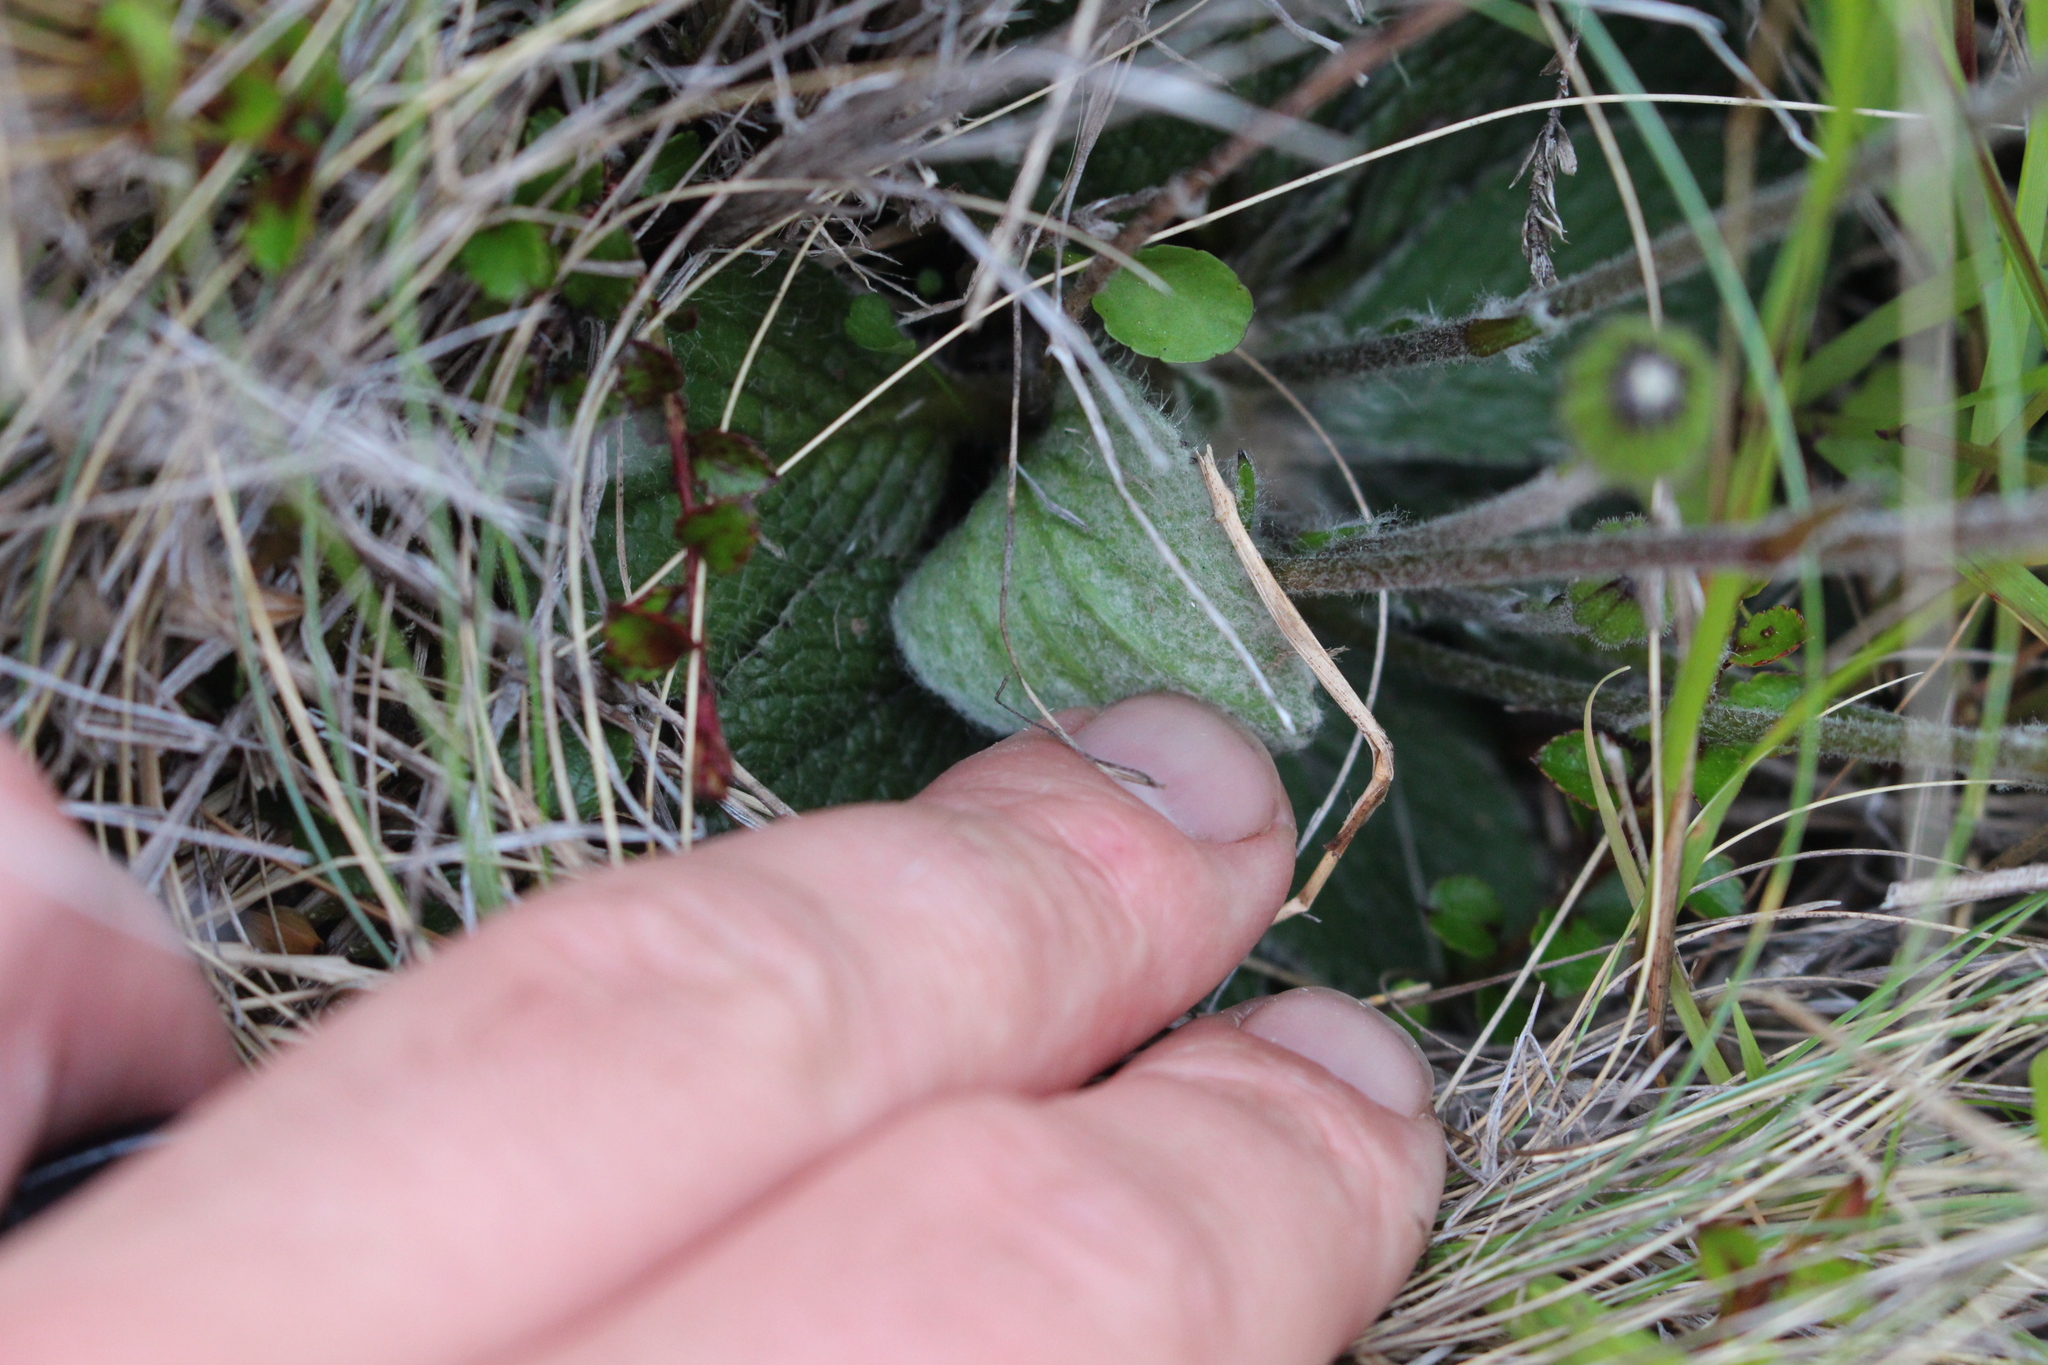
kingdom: Plantae
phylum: Tracheophyta
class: Magnoliopsida
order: Asterales
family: Asteraceae
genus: Brachyglottis
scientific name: Brachyglottis lagopus
